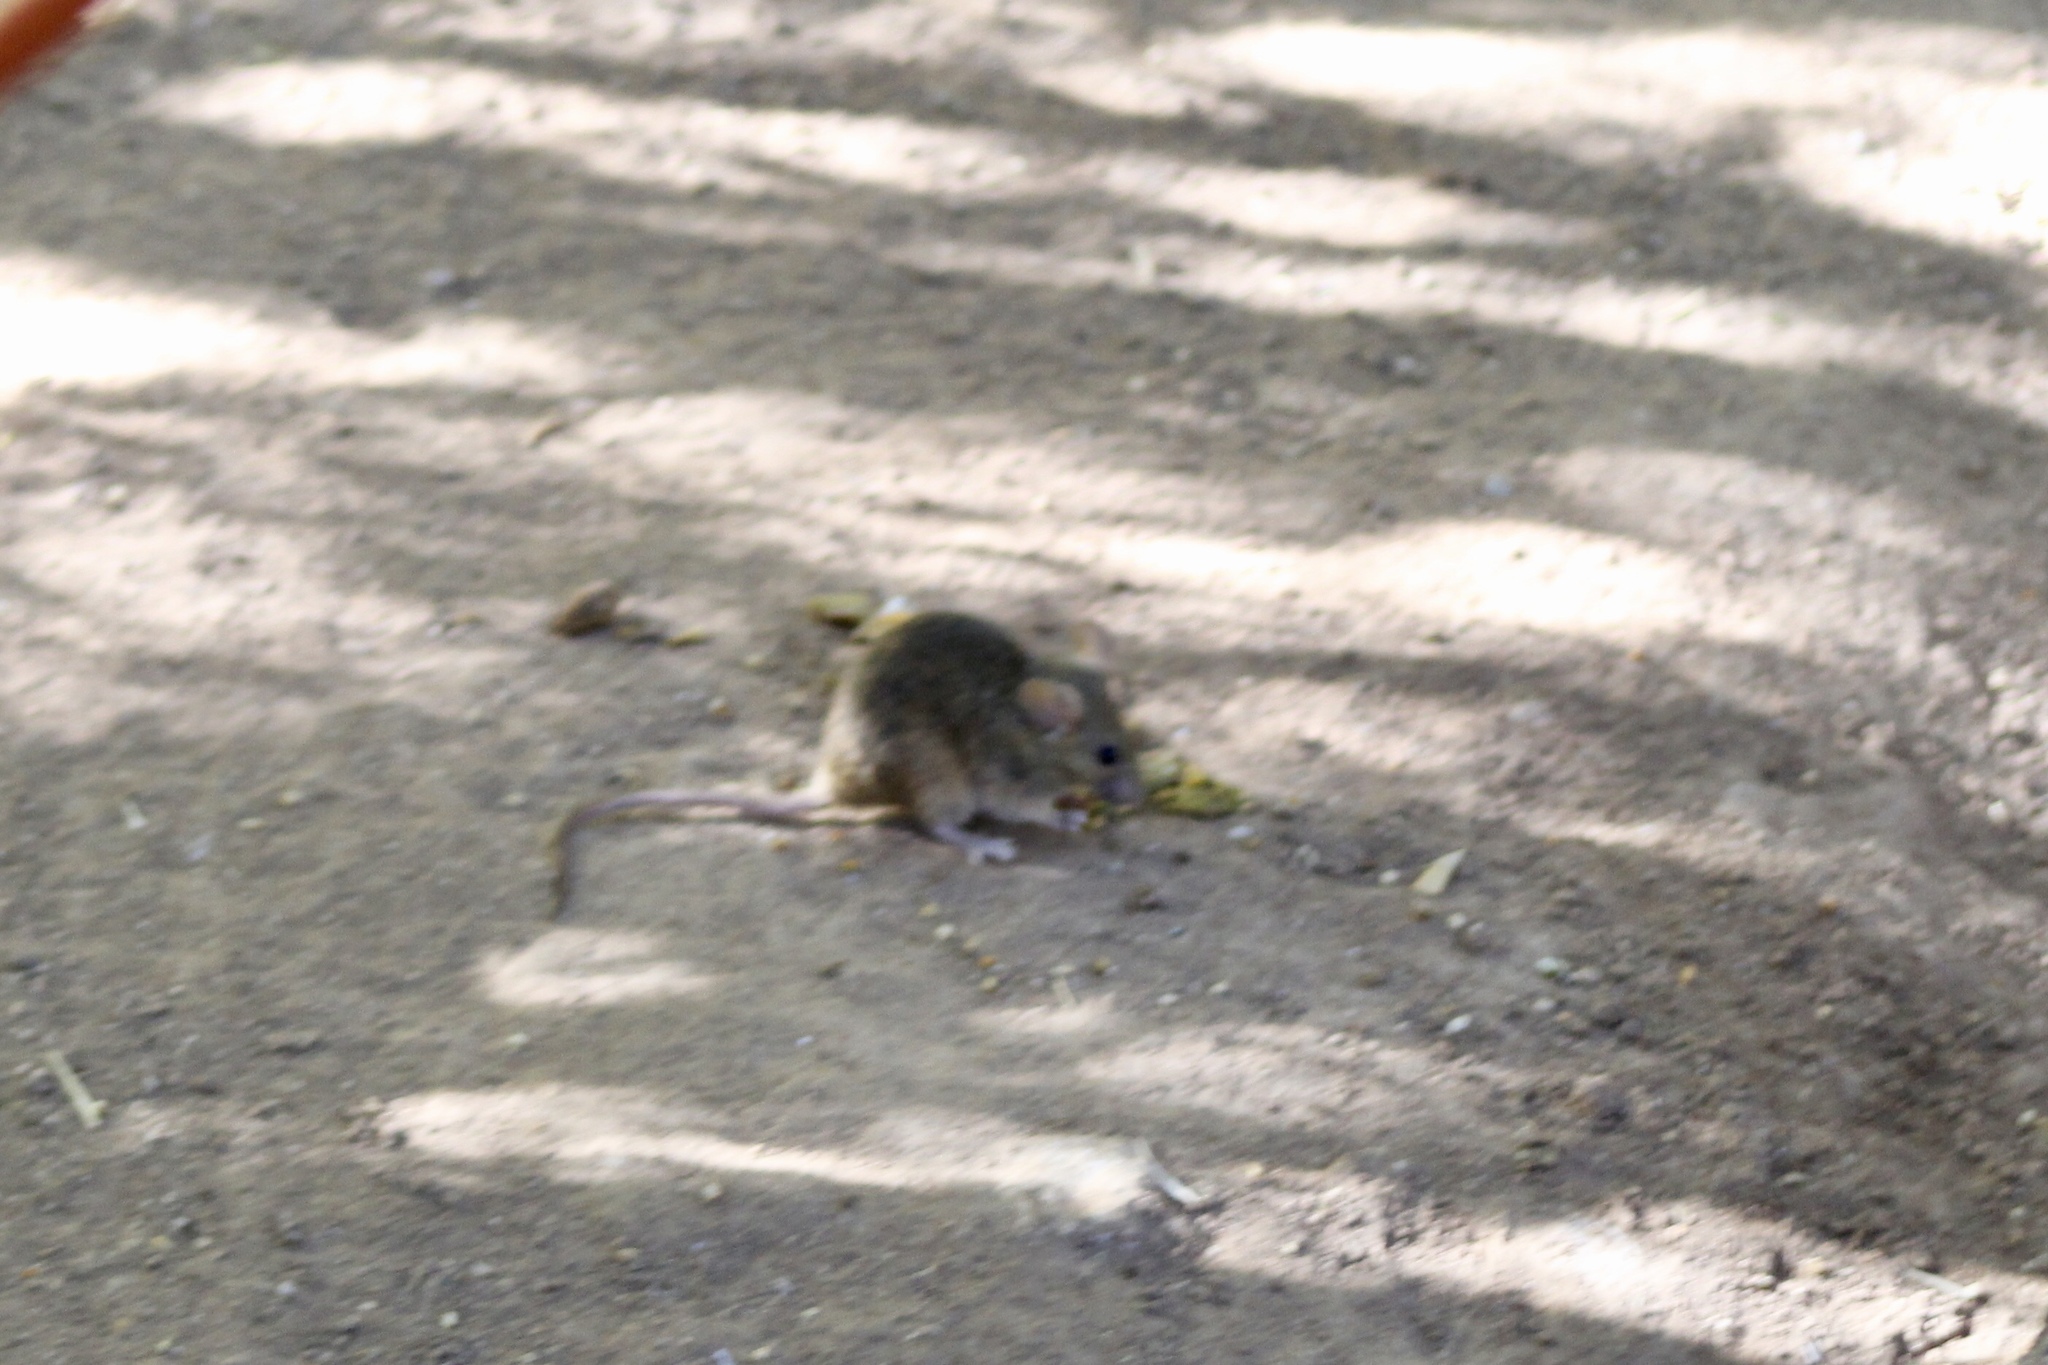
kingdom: Animalia
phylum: Chordata
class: Mammalia
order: Rodentia
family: Muridae
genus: Mus
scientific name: Mus musculus
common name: House mouse
